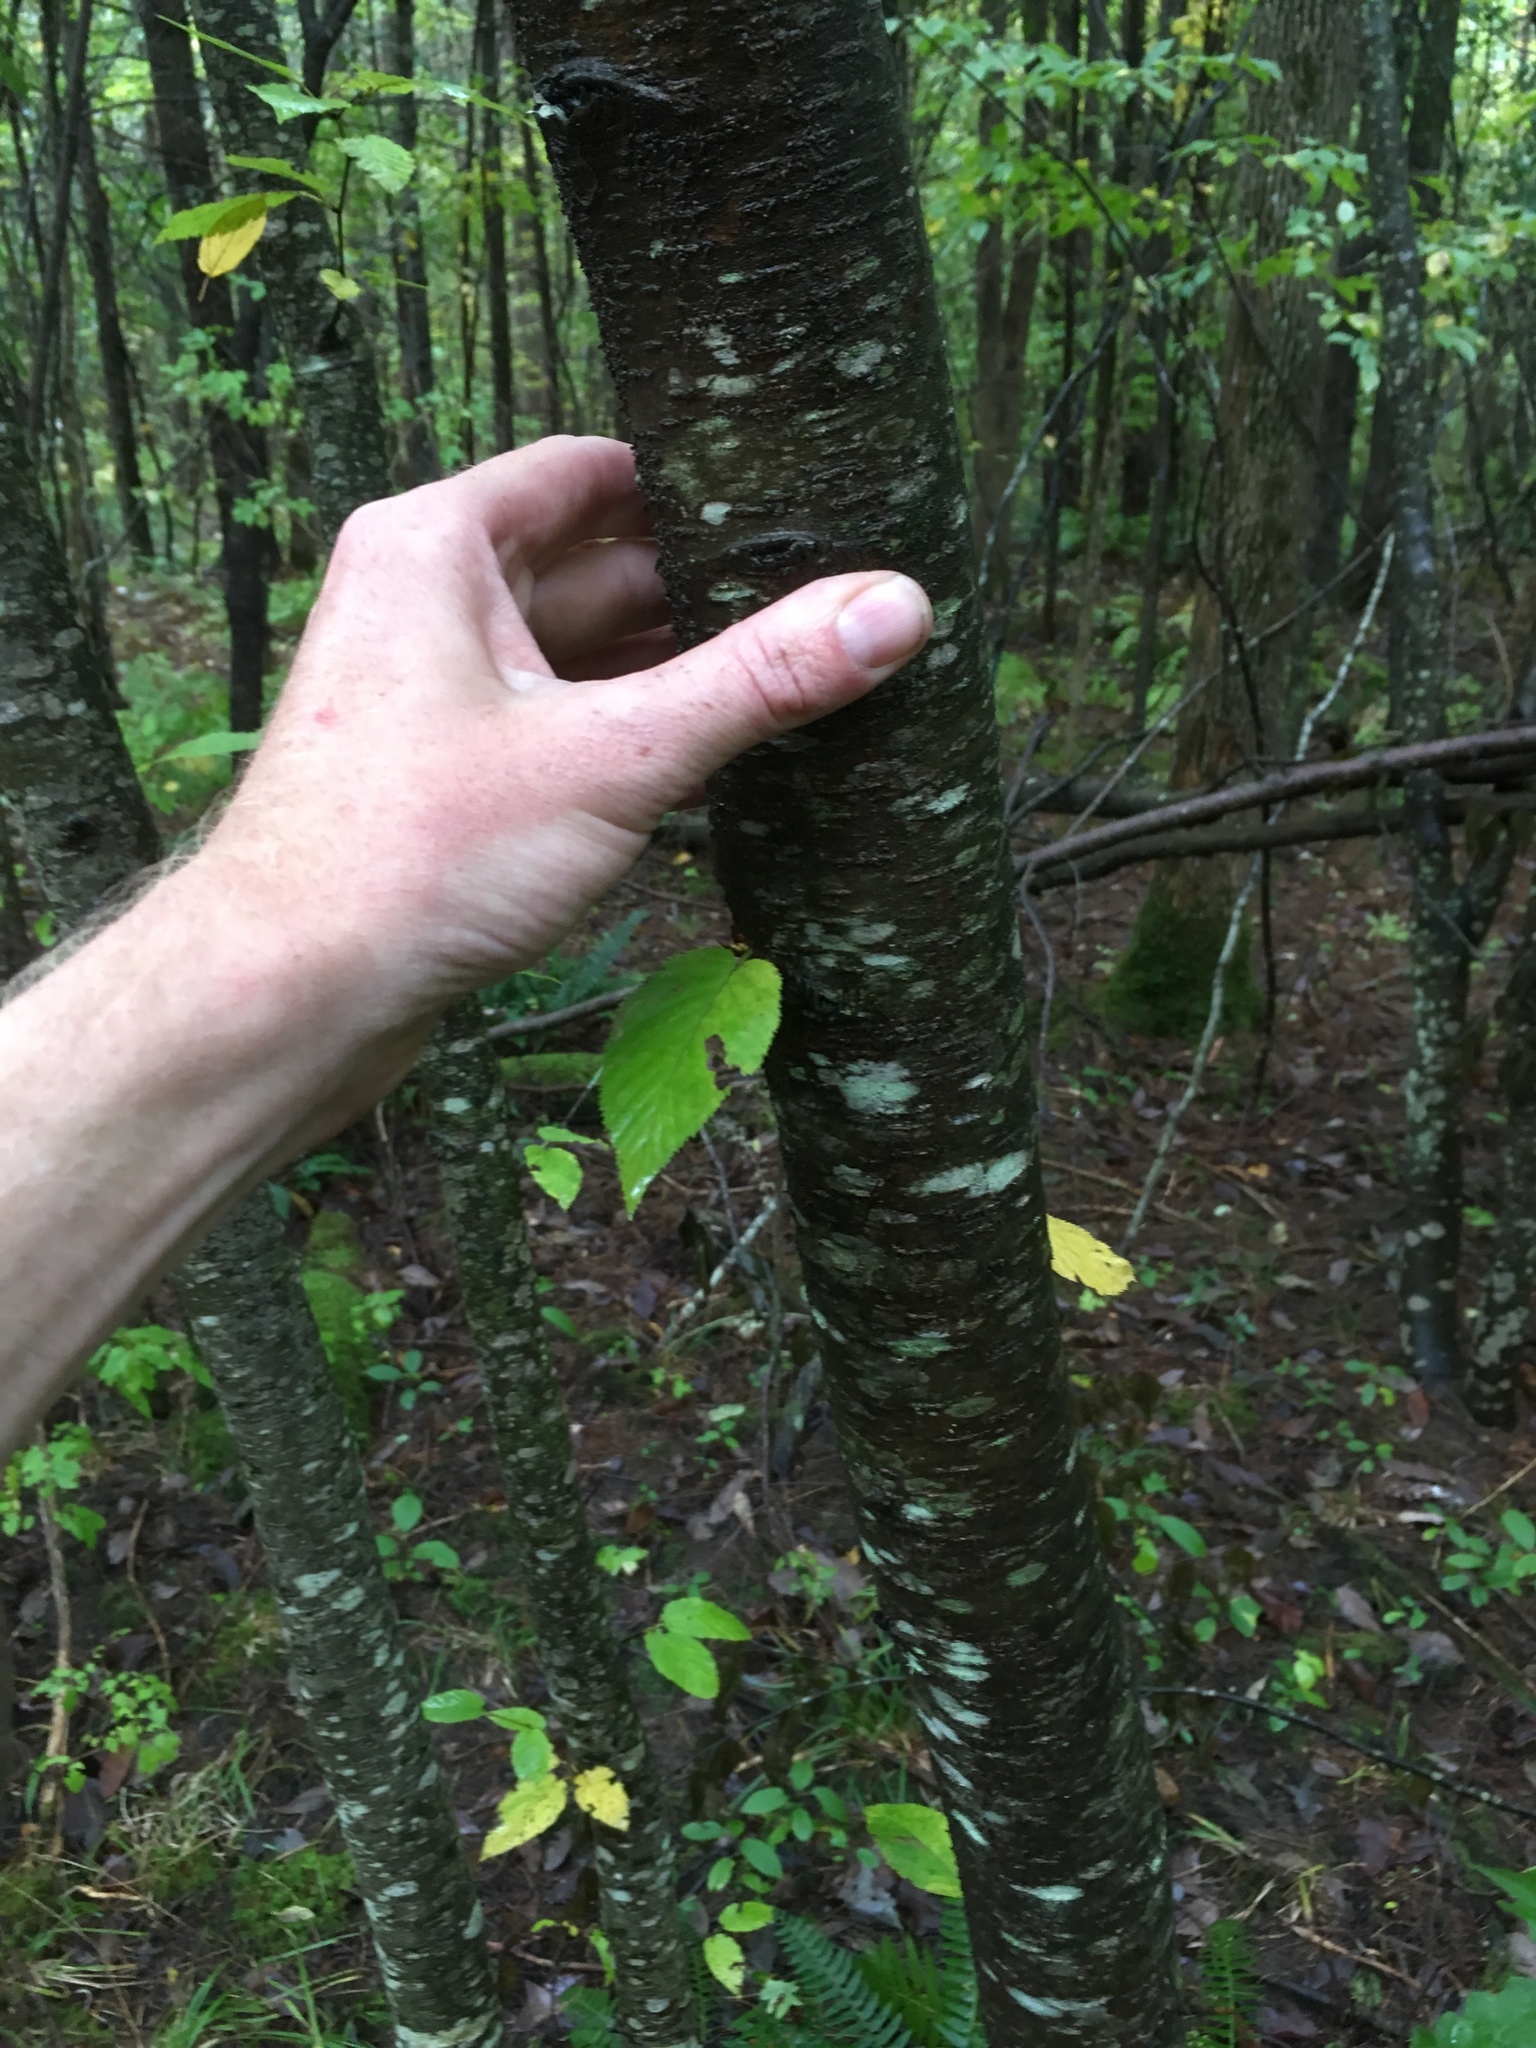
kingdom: Plantae
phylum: Tracheophyta
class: Magnoliopsida
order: Fagales
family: Betulaceae
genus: Betula
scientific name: Betula lenta
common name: Black birch
